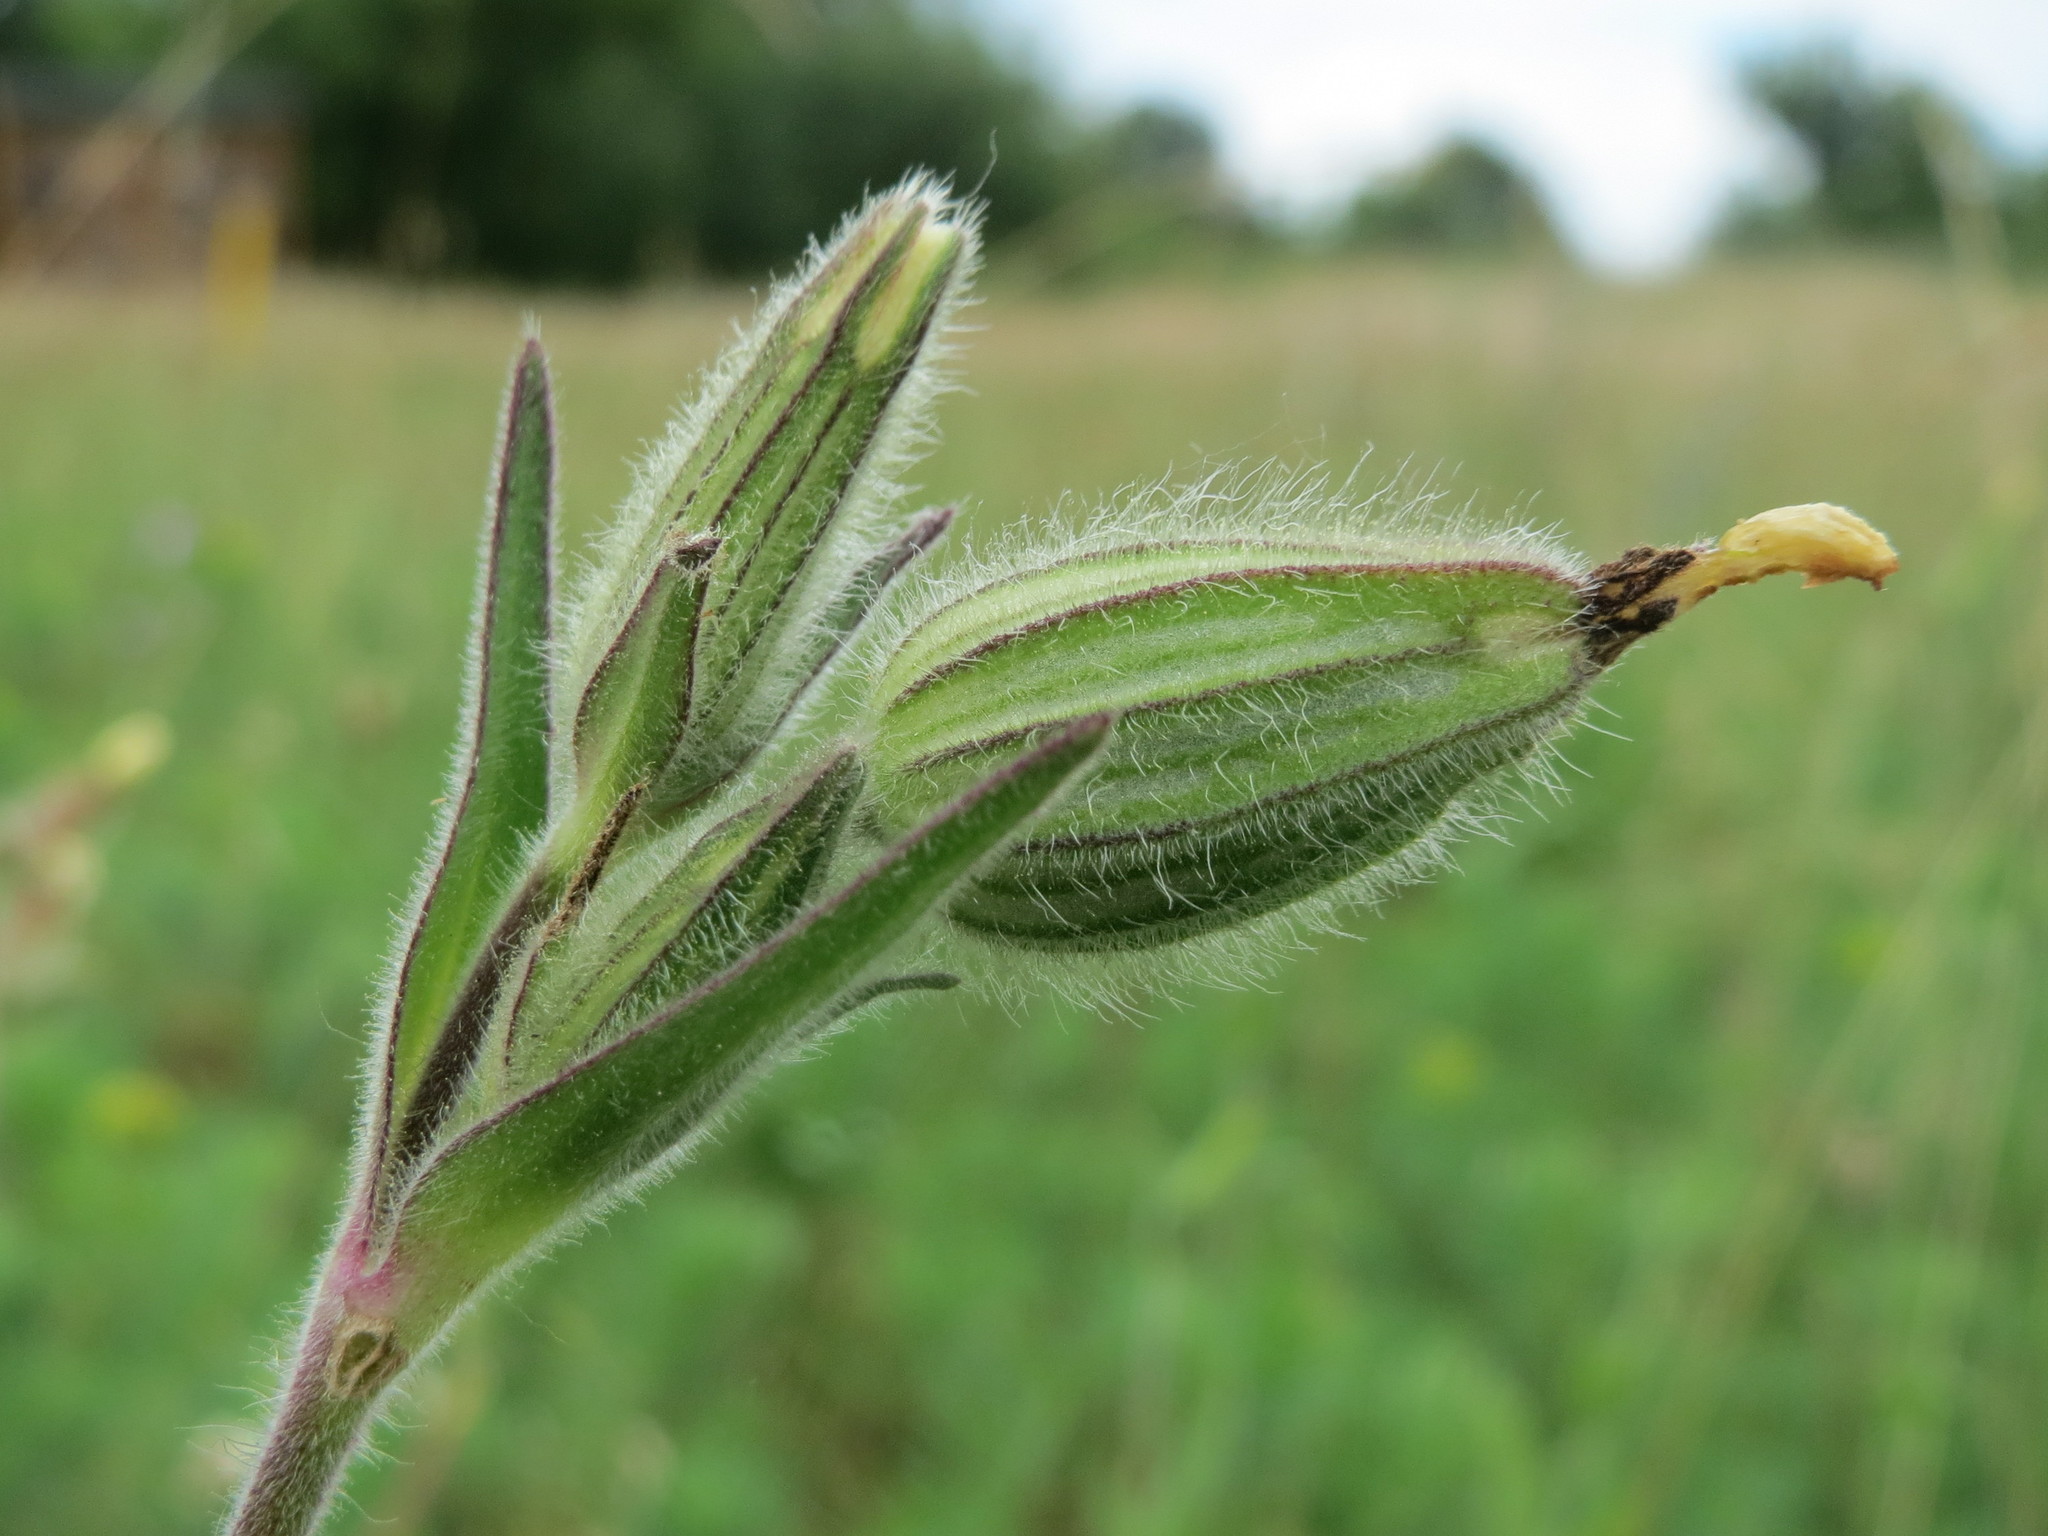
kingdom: Plantae
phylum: Tracheophyta
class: Magnoliopsida
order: Caryophyllales
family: Caryophyllaceae
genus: Silene
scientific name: Silene latifolia
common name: White campion
